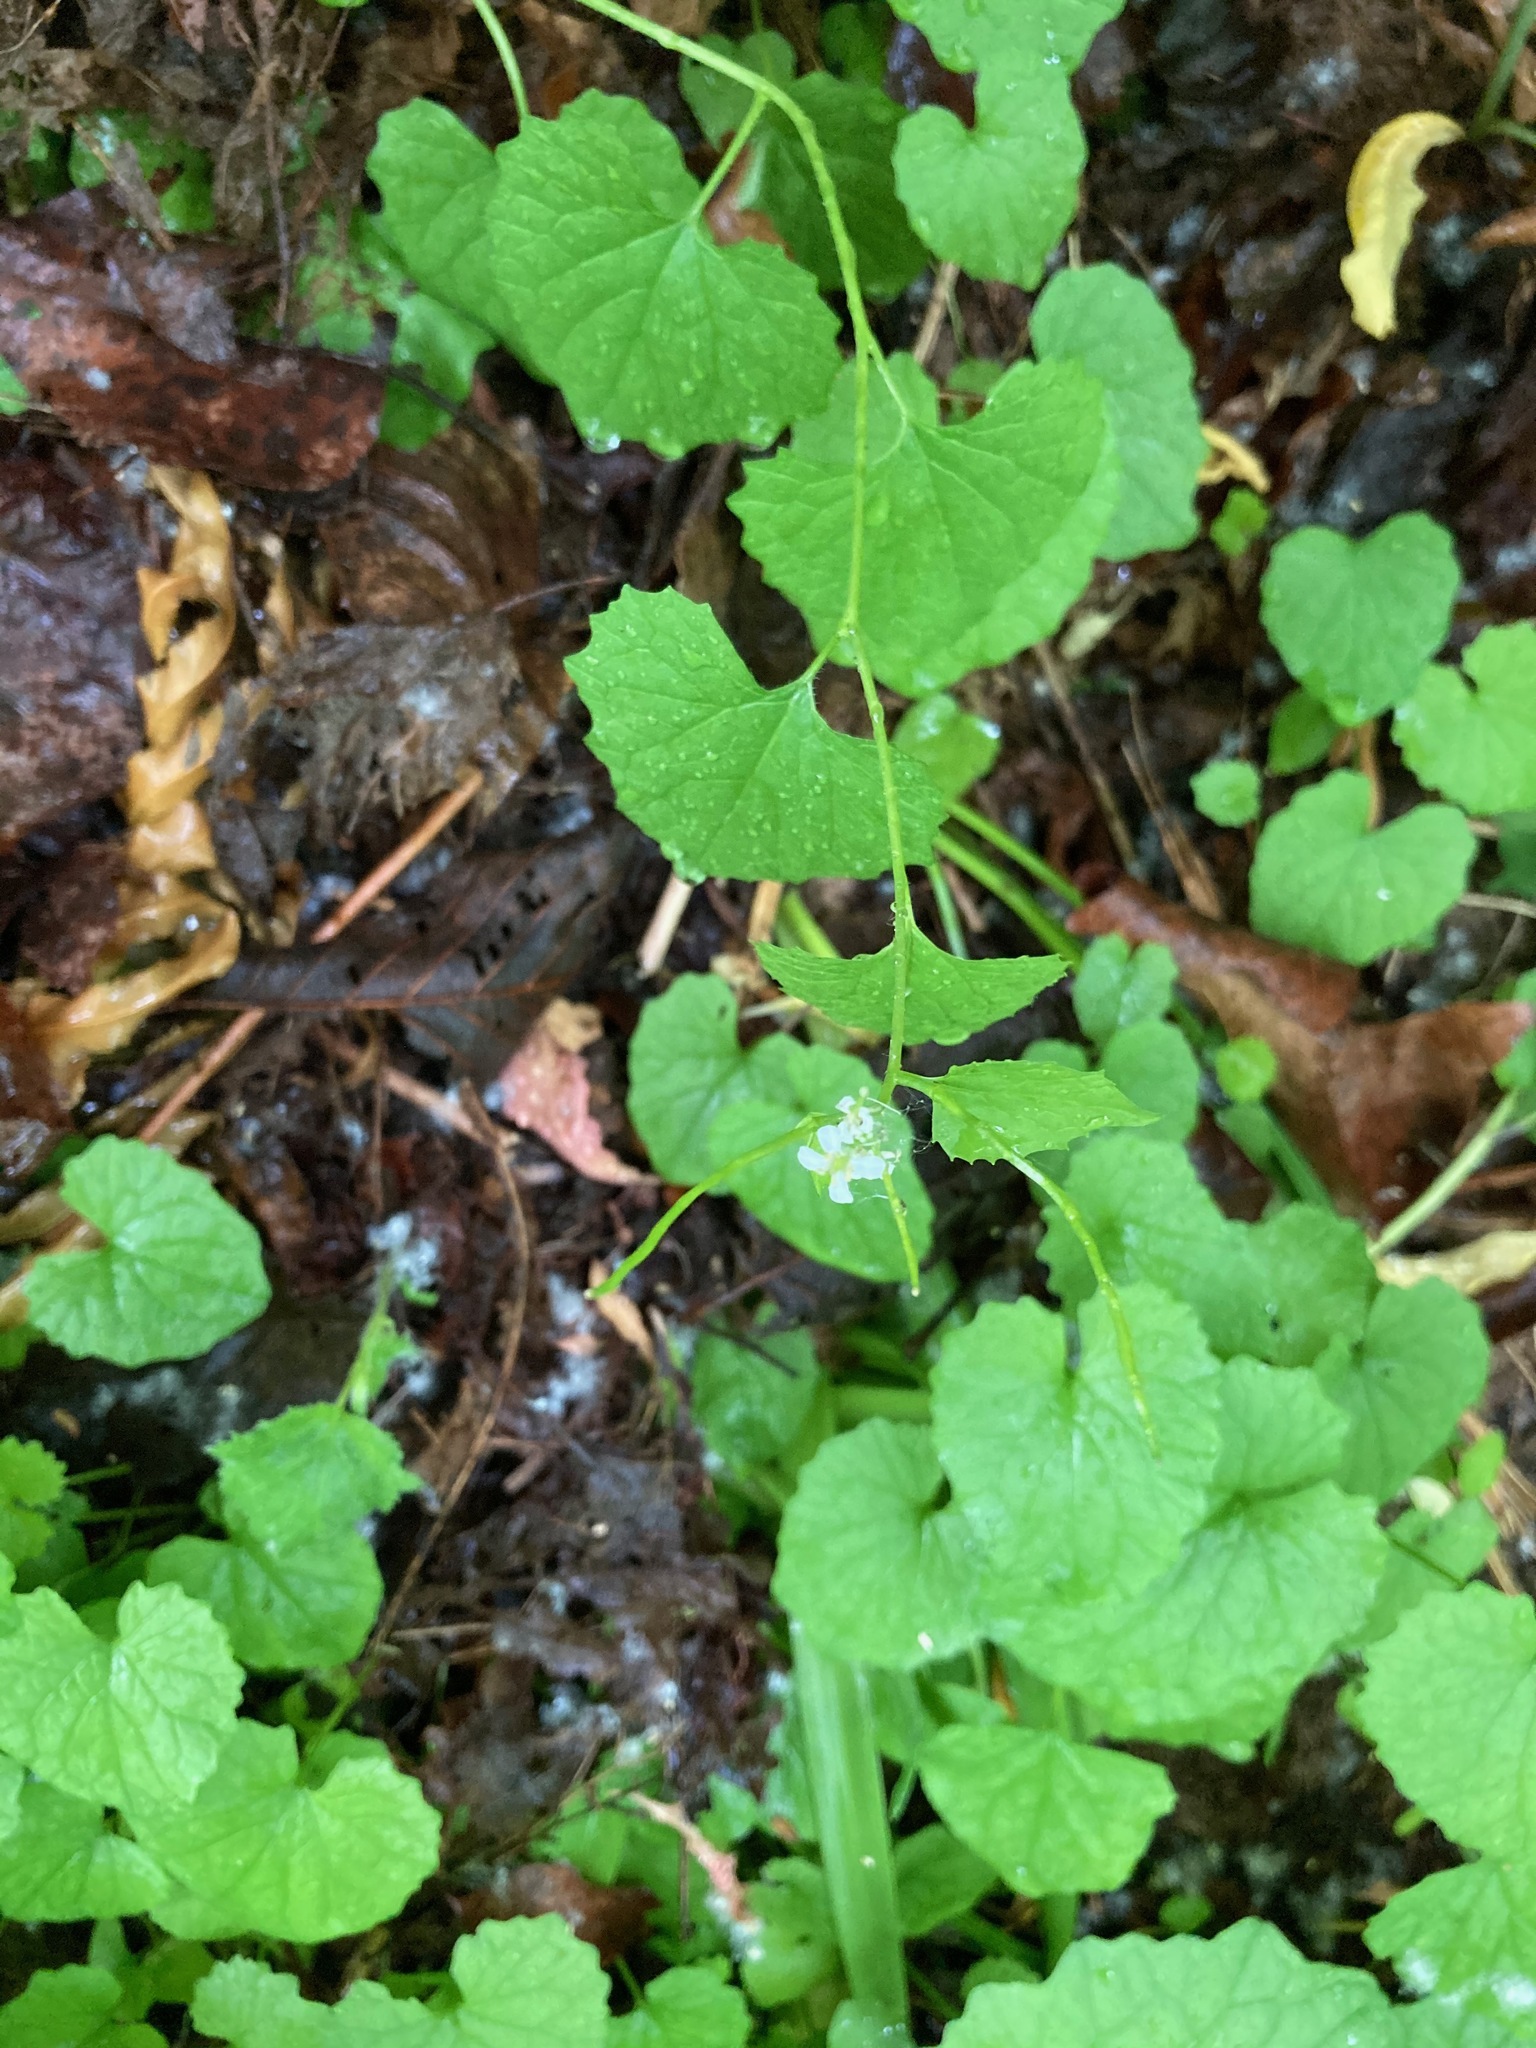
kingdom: Plantae
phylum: Tracheophyta
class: Magnoliopsida
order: Brassicales
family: Brassicaceae
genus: Alliaria
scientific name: Alliaria petiolata
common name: Garlic mustard
